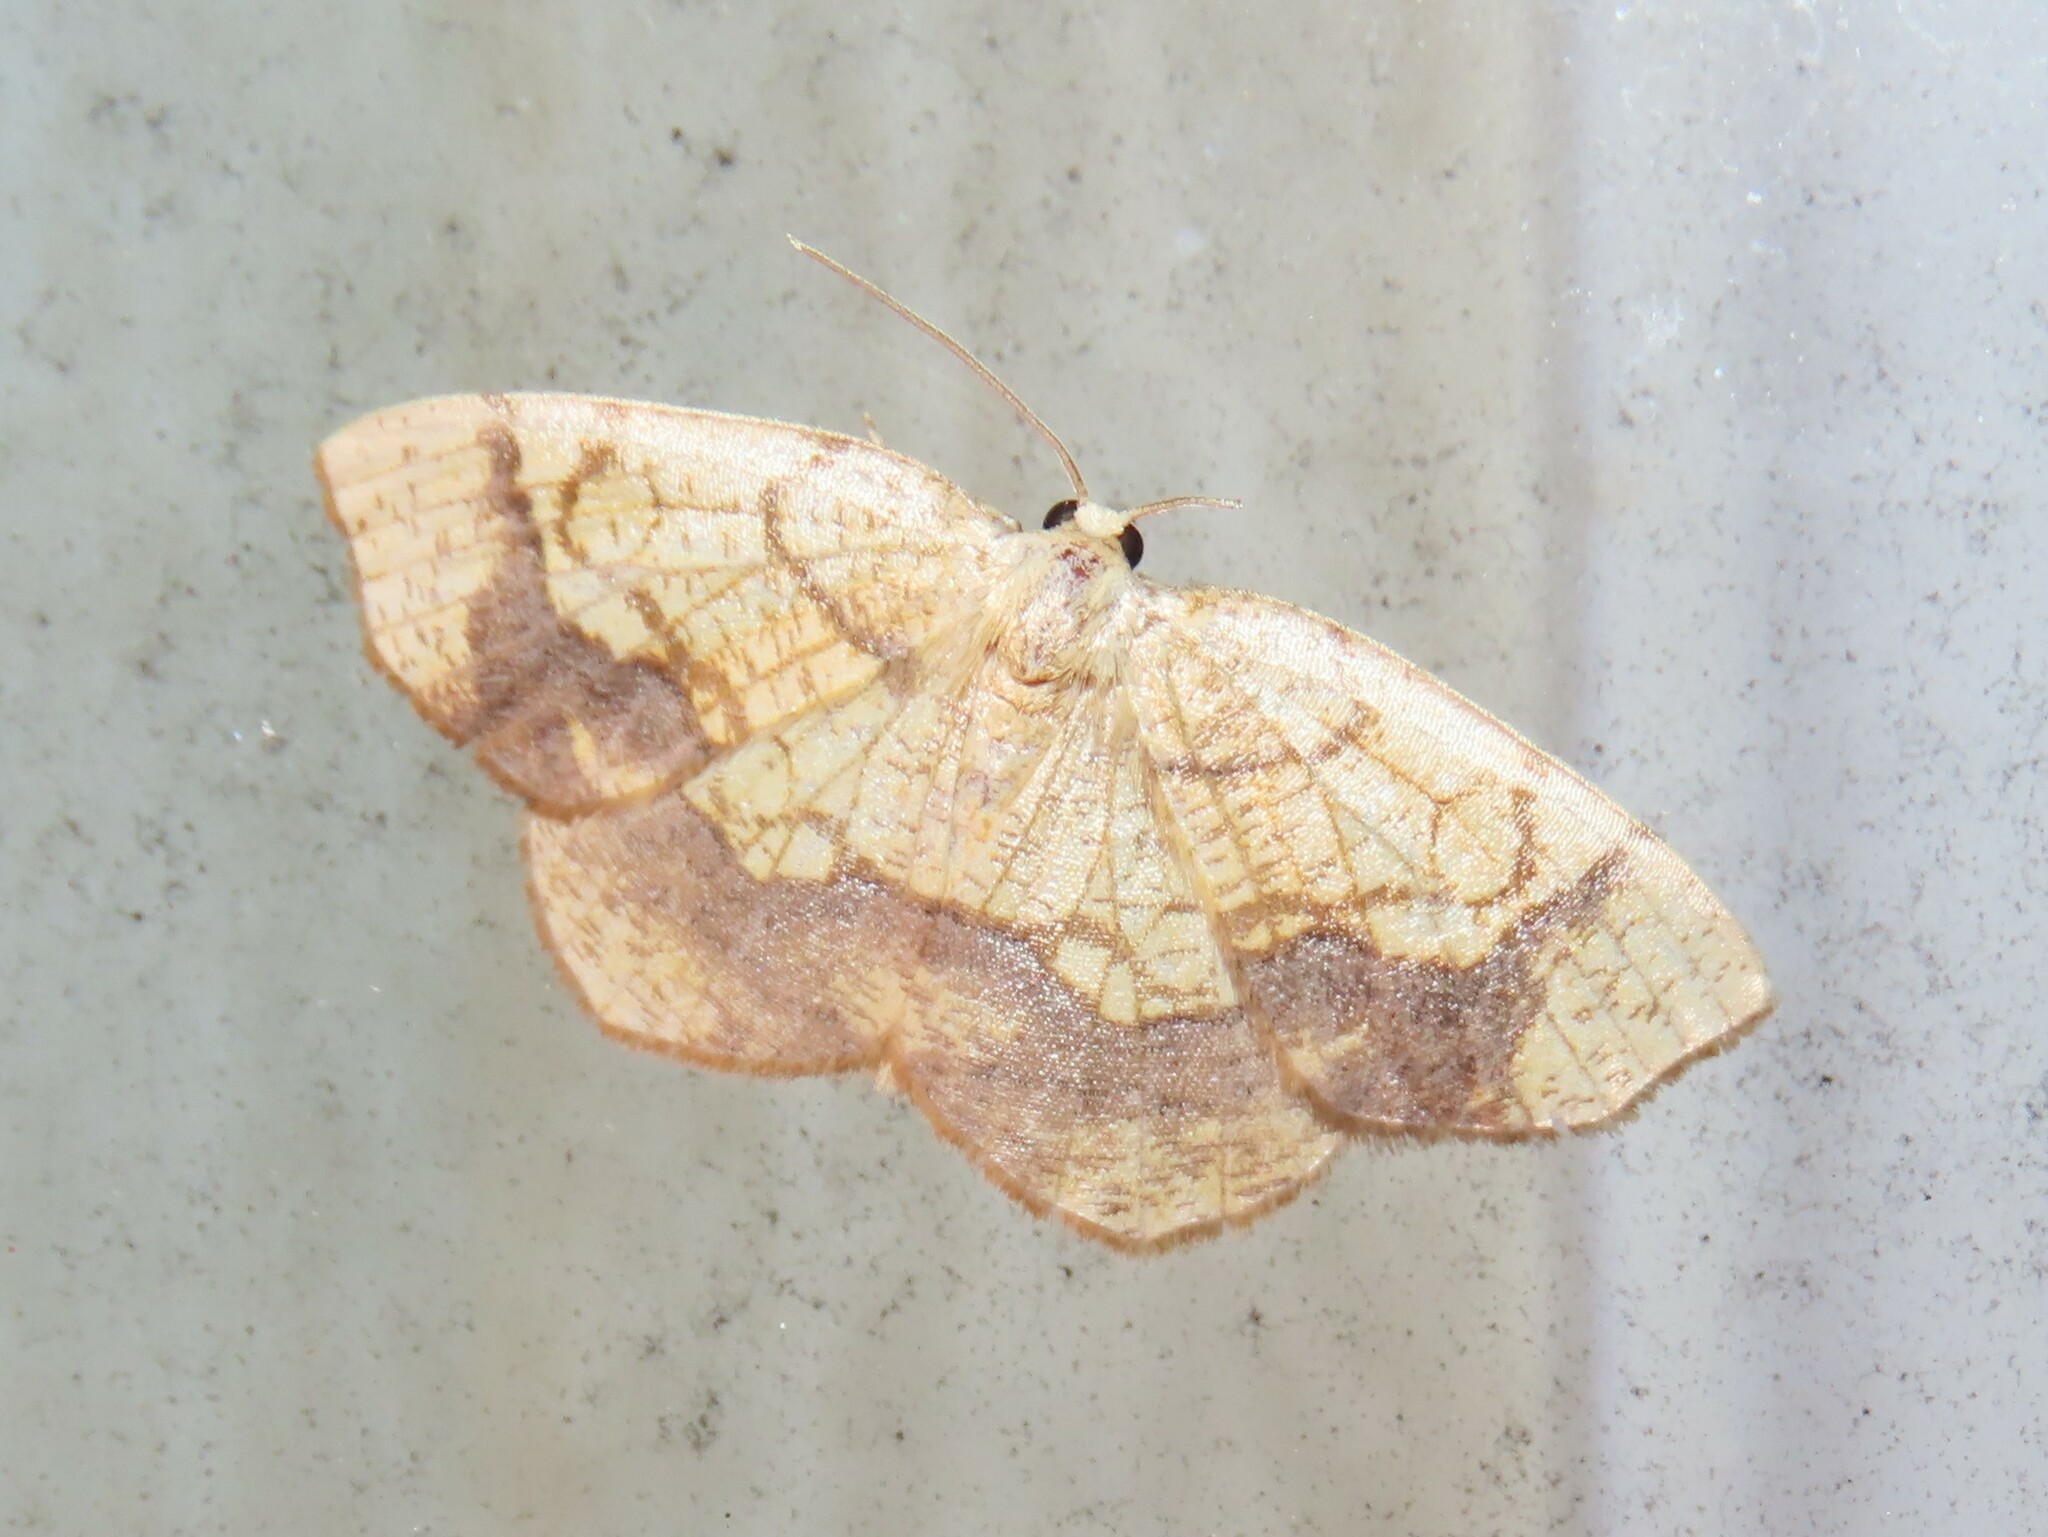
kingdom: Animalia
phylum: Arthropoda
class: Insecta
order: Lepidoptera
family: Geometridae
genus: Nematocampa
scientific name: Nematocampa resistaria
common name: Horned spanworm moth
